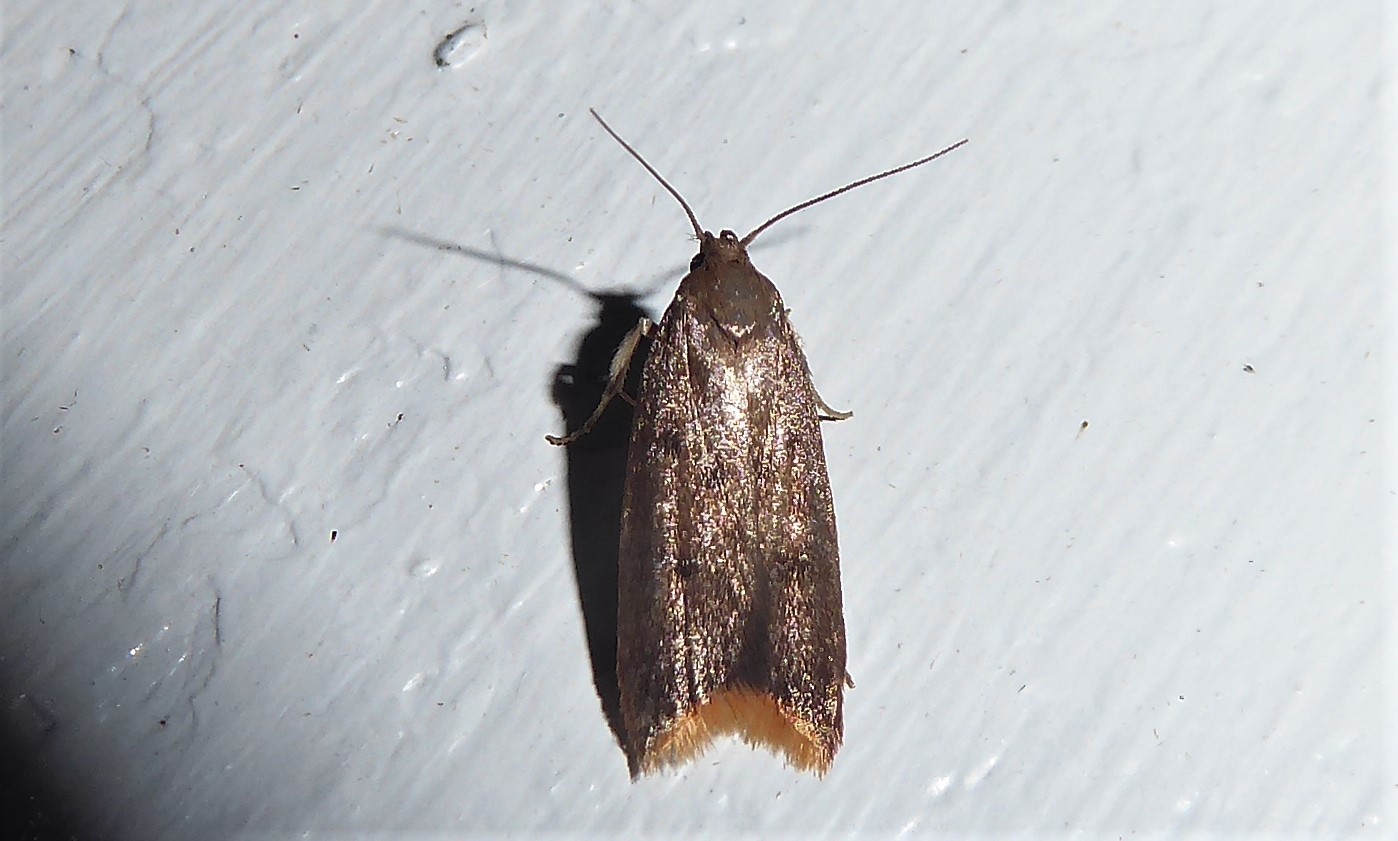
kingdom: Animalia
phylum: Arthropoda
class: Insecta
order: Lepidoptera
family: Oecophoridae
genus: Tachystola
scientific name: Tachystola acroxantha
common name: Ruddy streak
